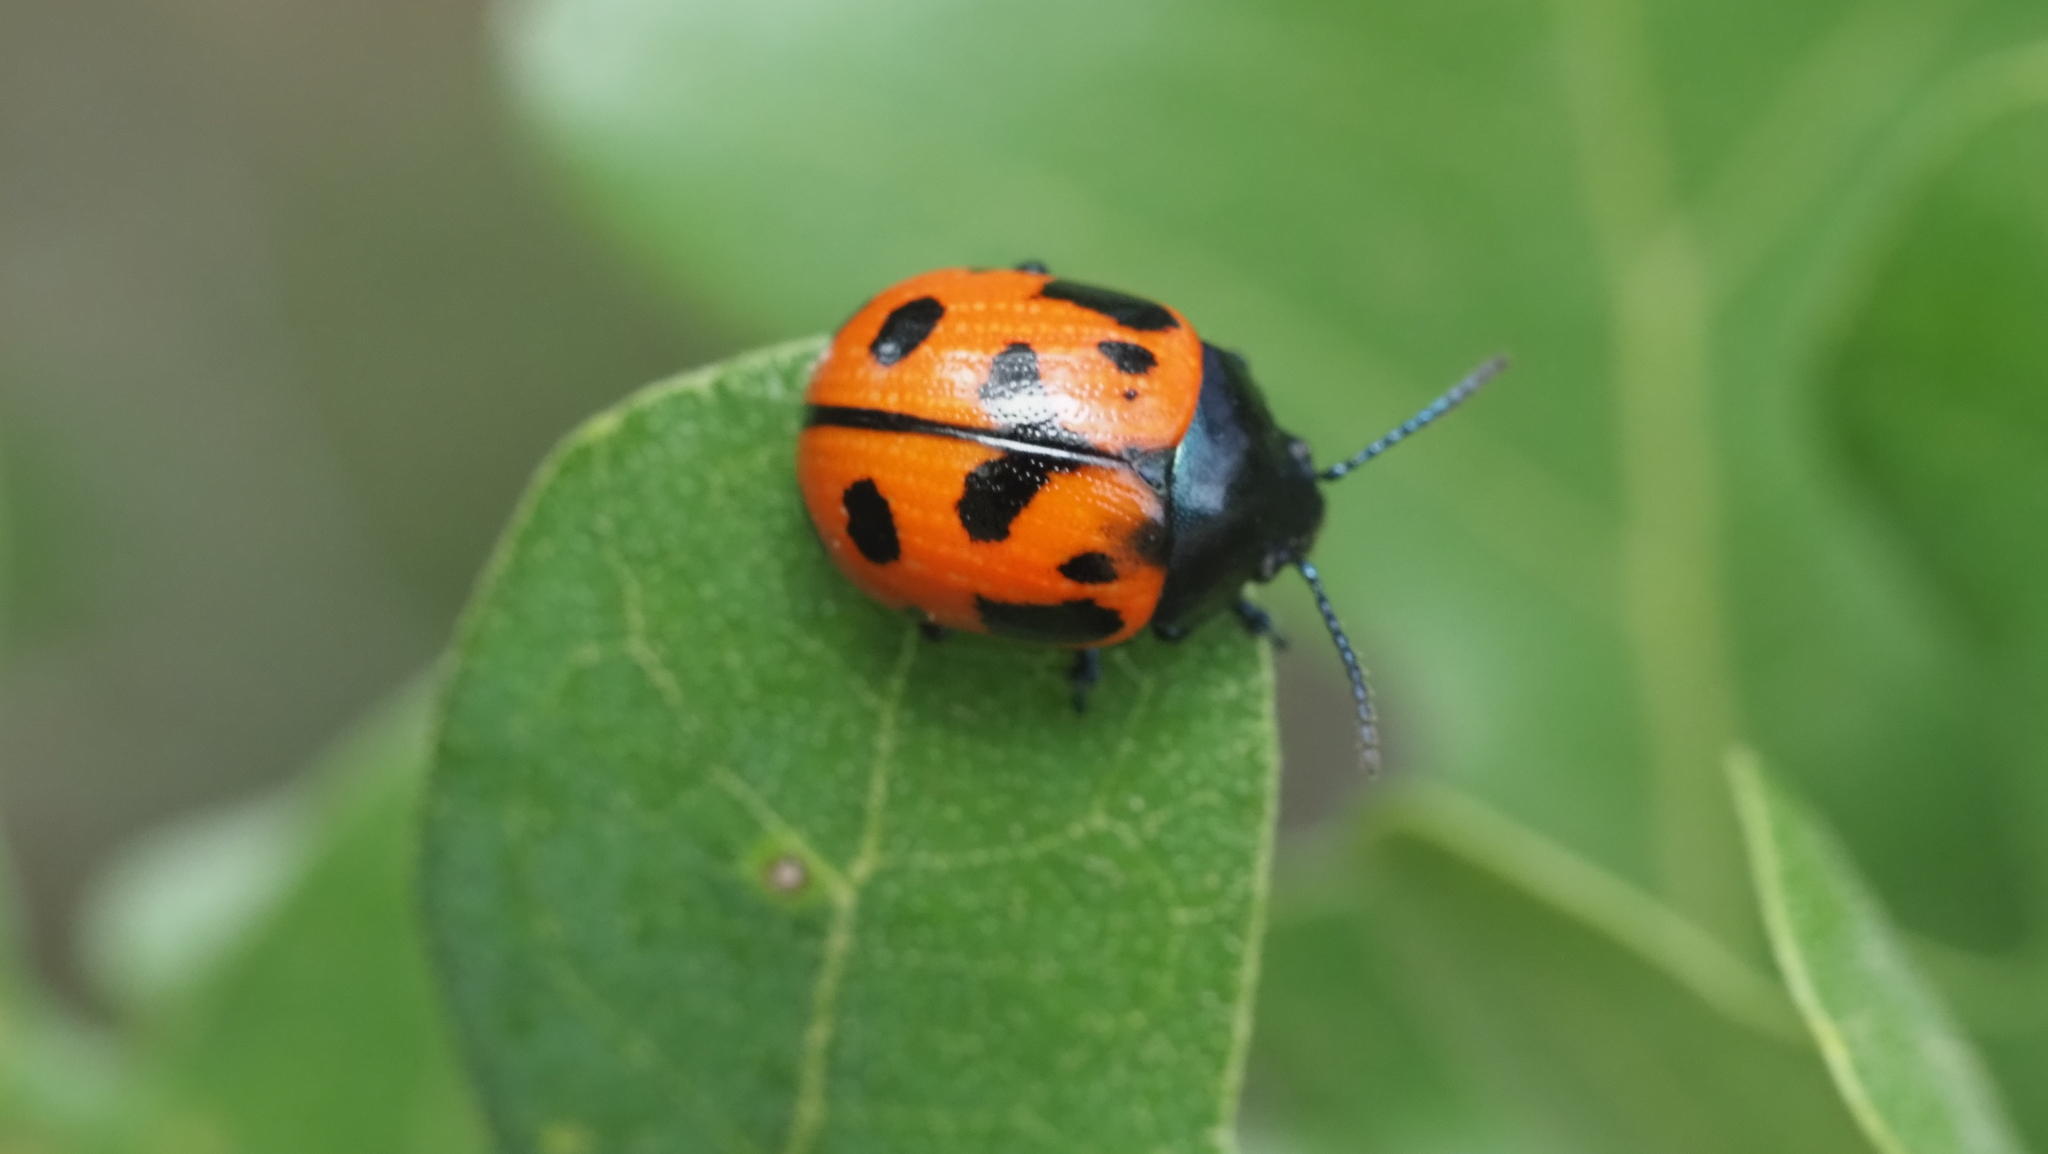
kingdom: Animalia
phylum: Arthropoda
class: Insecta
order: Coleoptera
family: Chrysomelidae
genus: Labidomera
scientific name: Labidomera clivicollis
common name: Swamp milkweed leaf beetle
